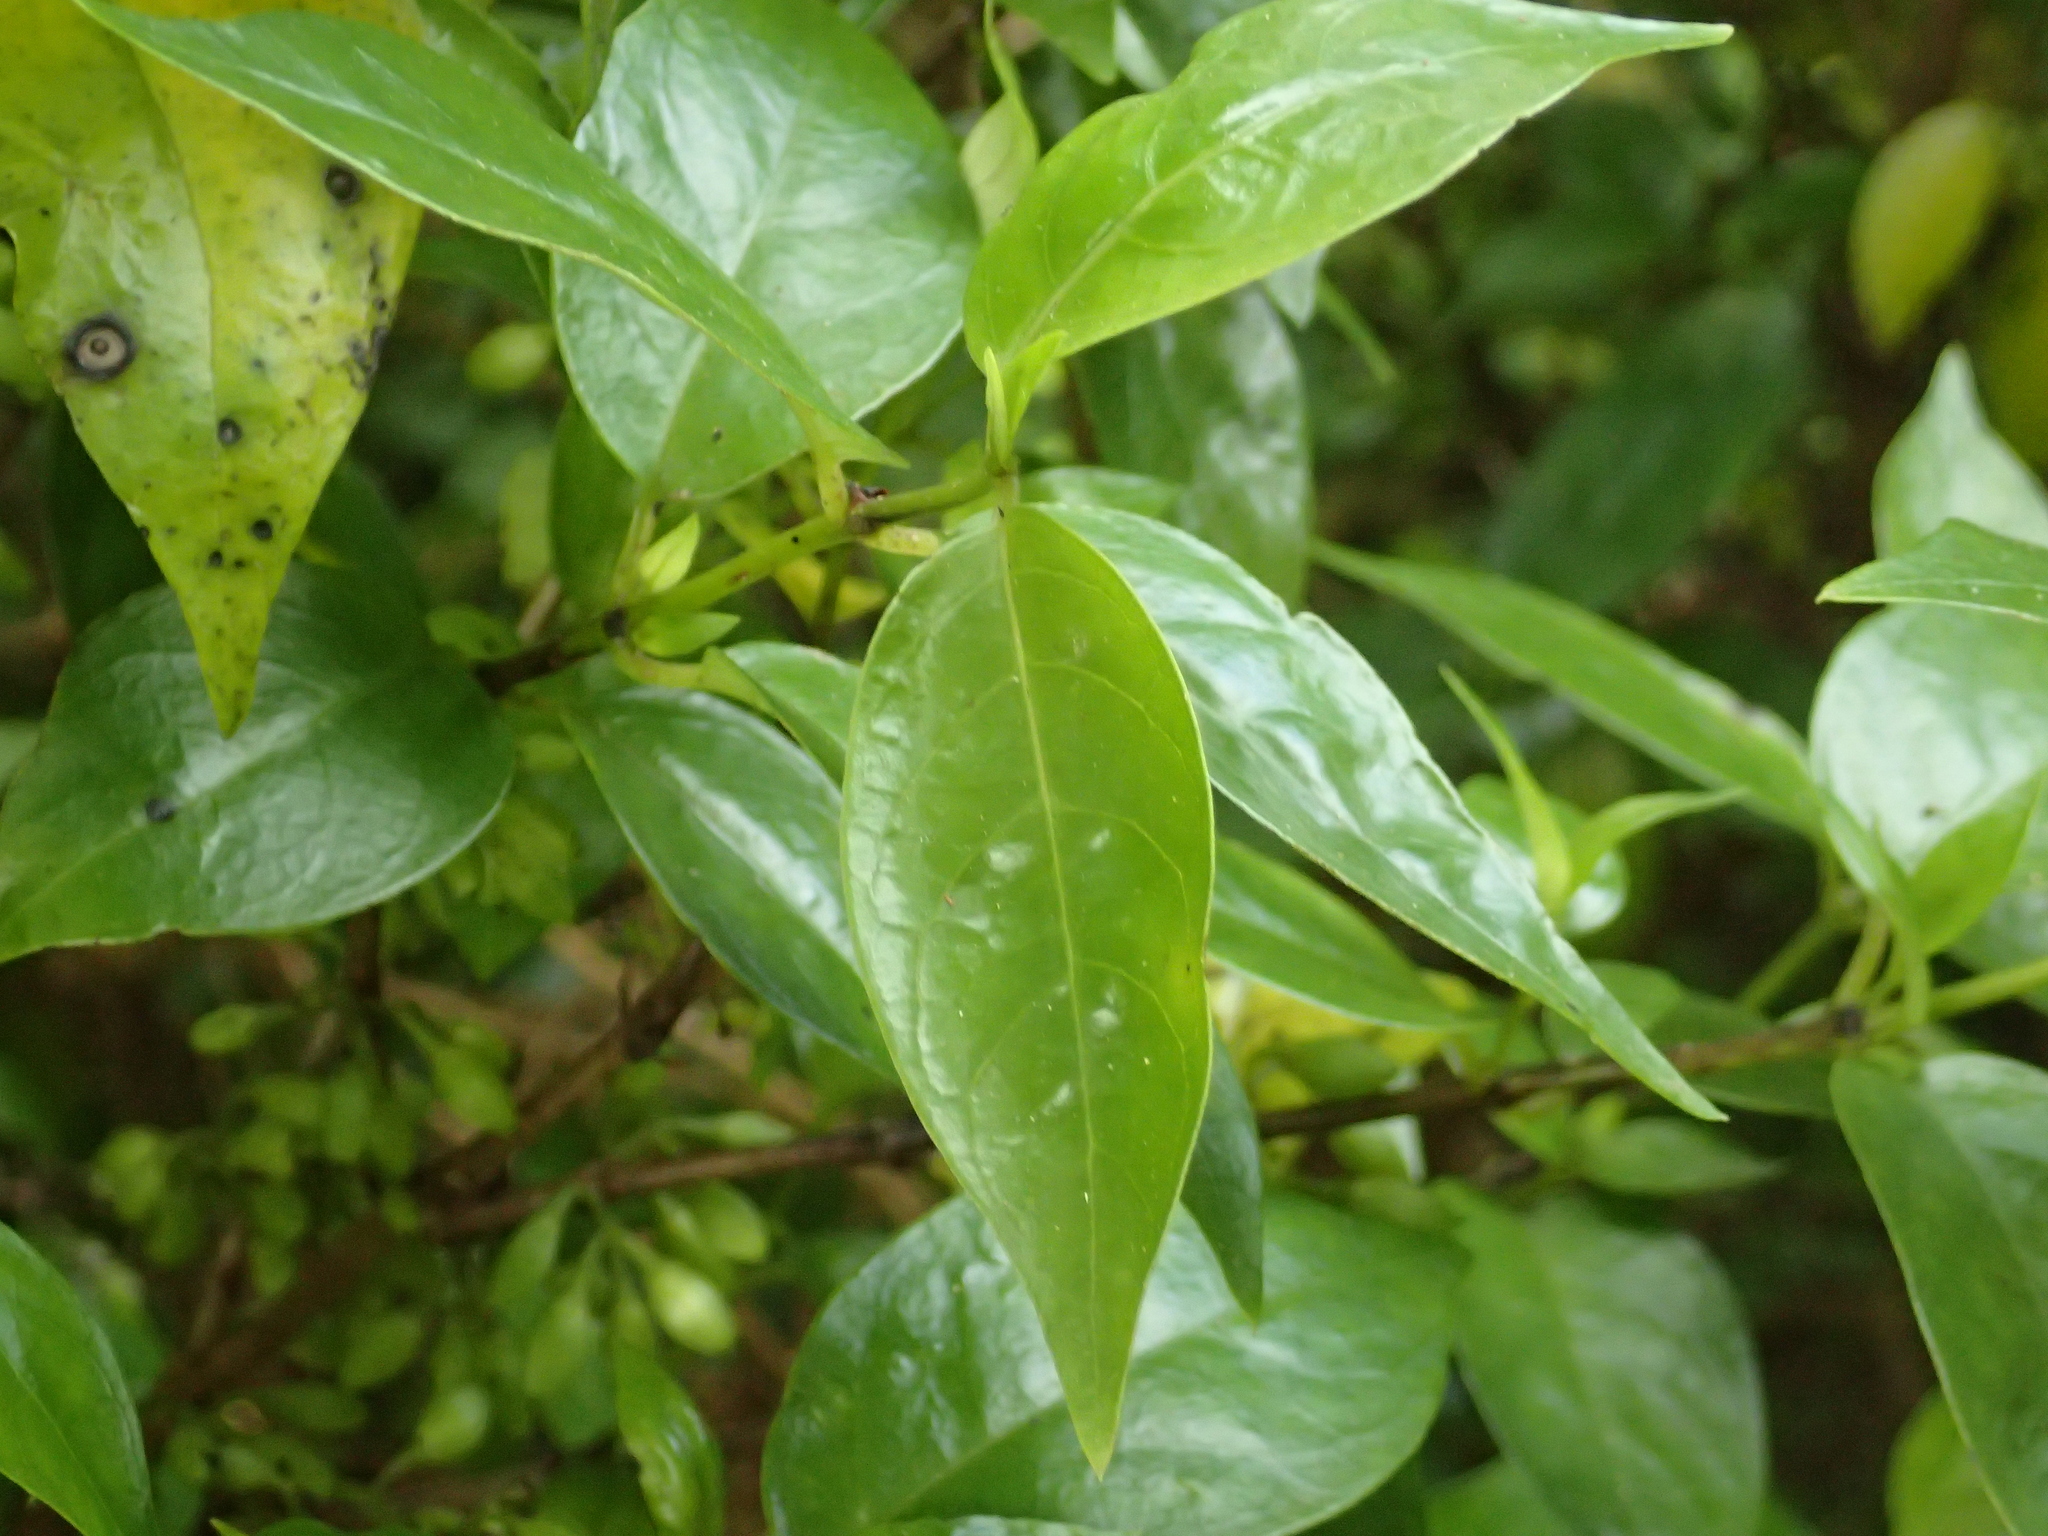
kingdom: Plantae
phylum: Tracheophyta
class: Magnoliopsida
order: Gentianales
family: Loganiaceae
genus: Geniostoma
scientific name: Geniostoma ligustrifolium
